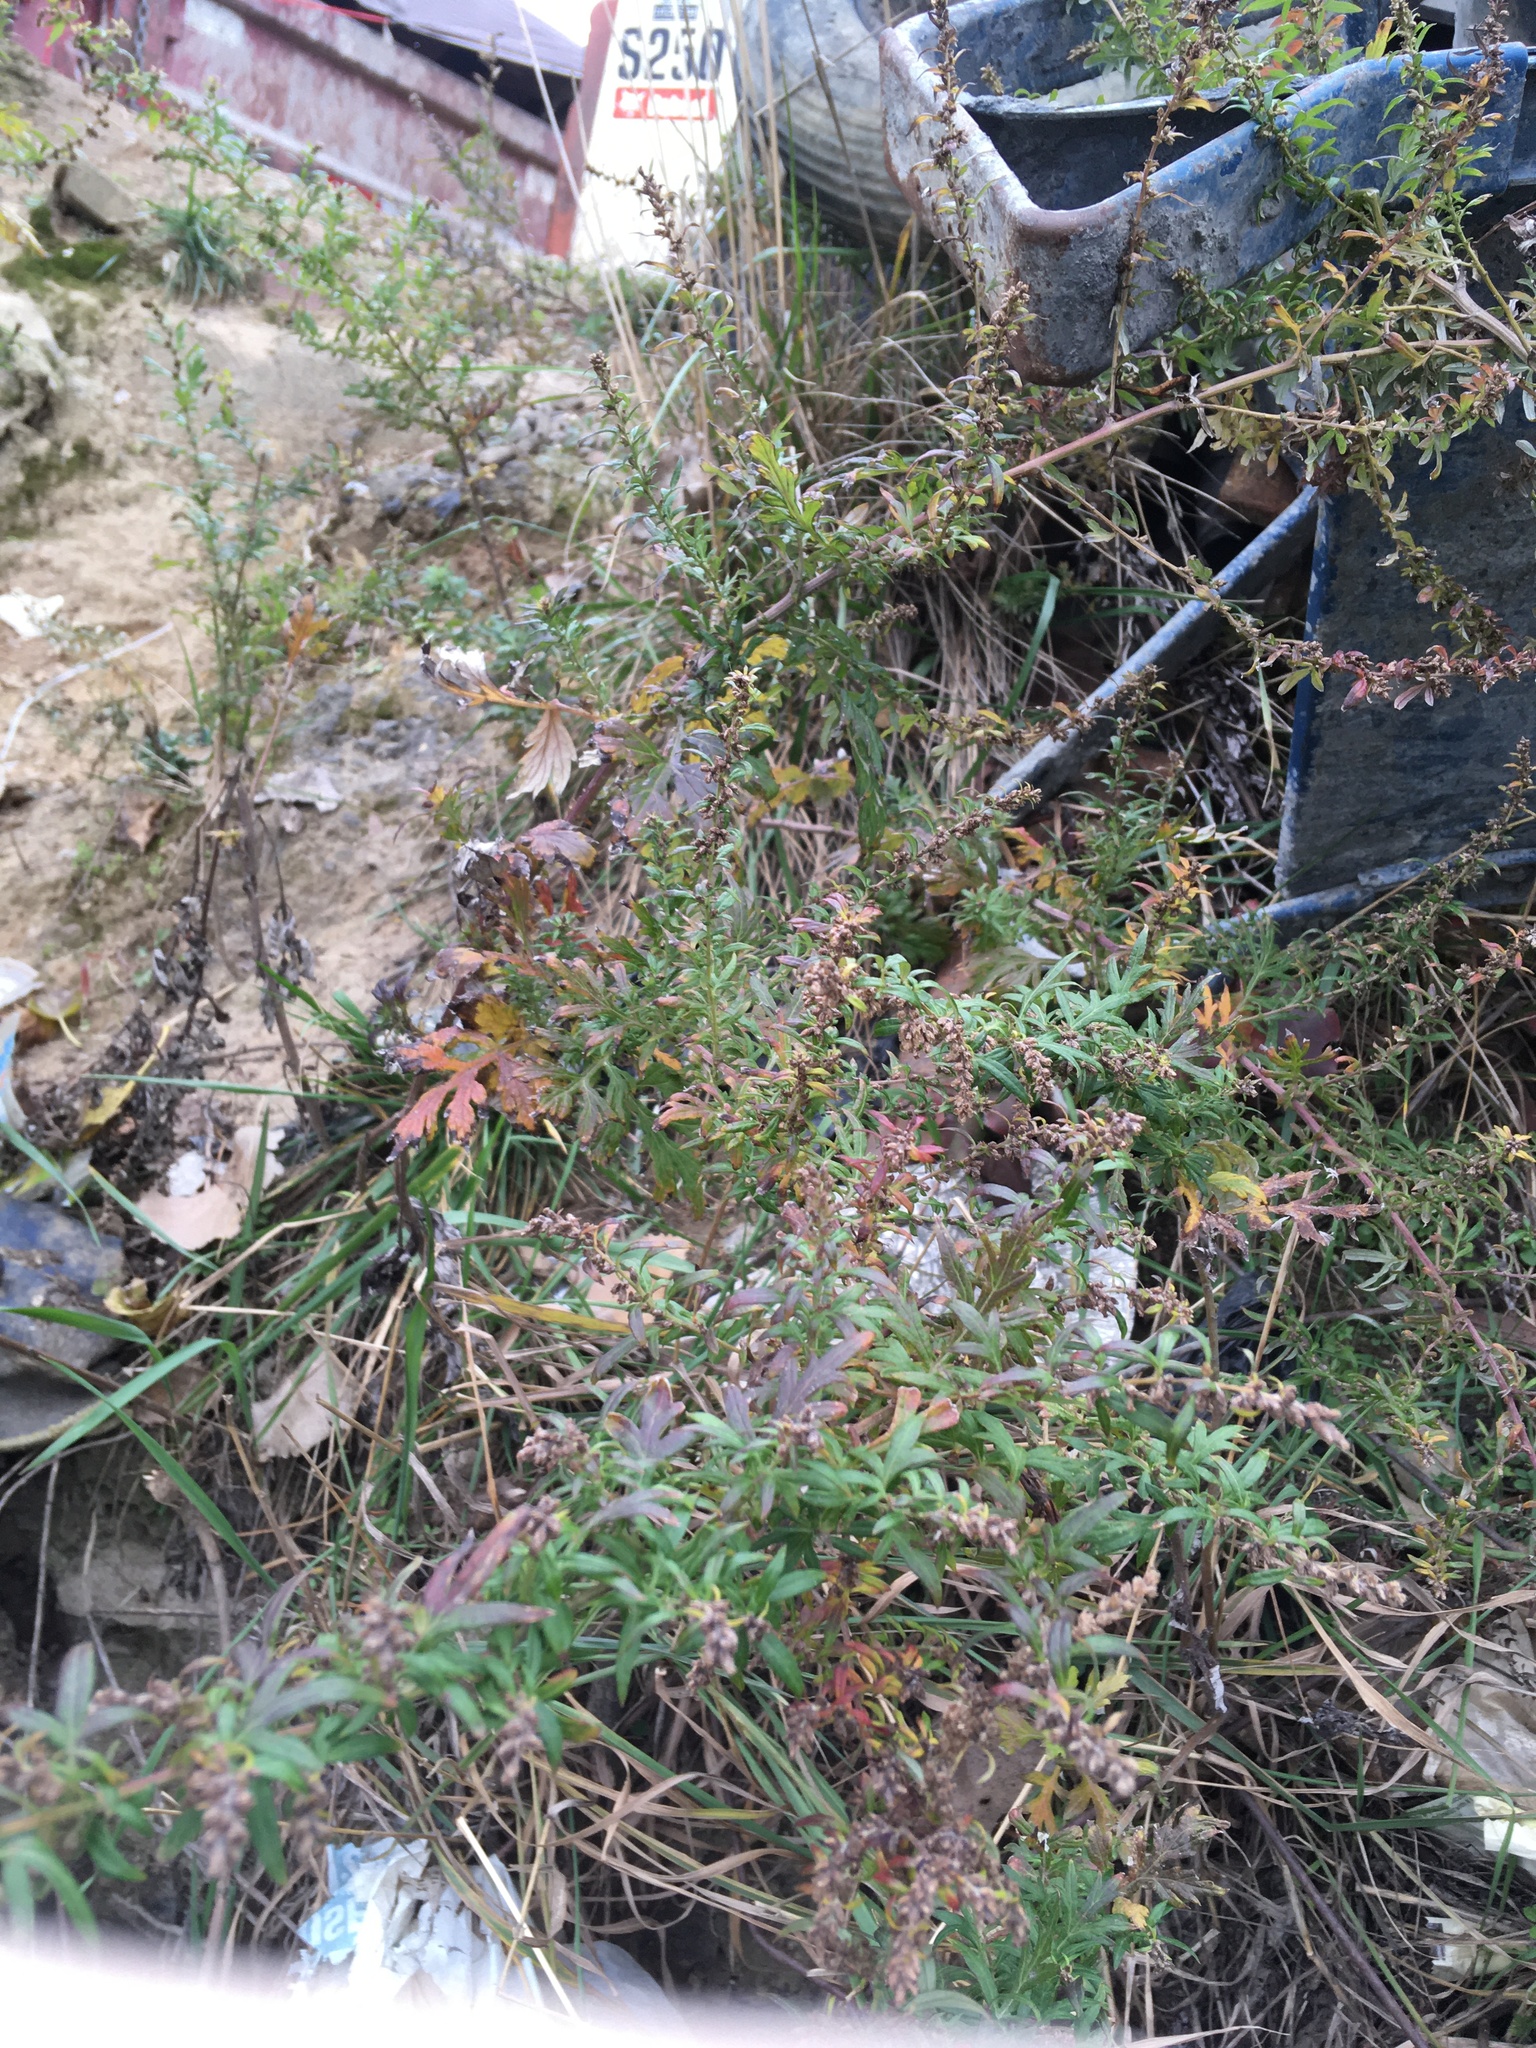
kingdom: Plantae
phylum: Tracheophyta
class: Magnoliopsida
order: Asterales
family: Asteraceae
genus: Artemisia
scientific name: Artemisia vulgaris
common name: Mugwort
